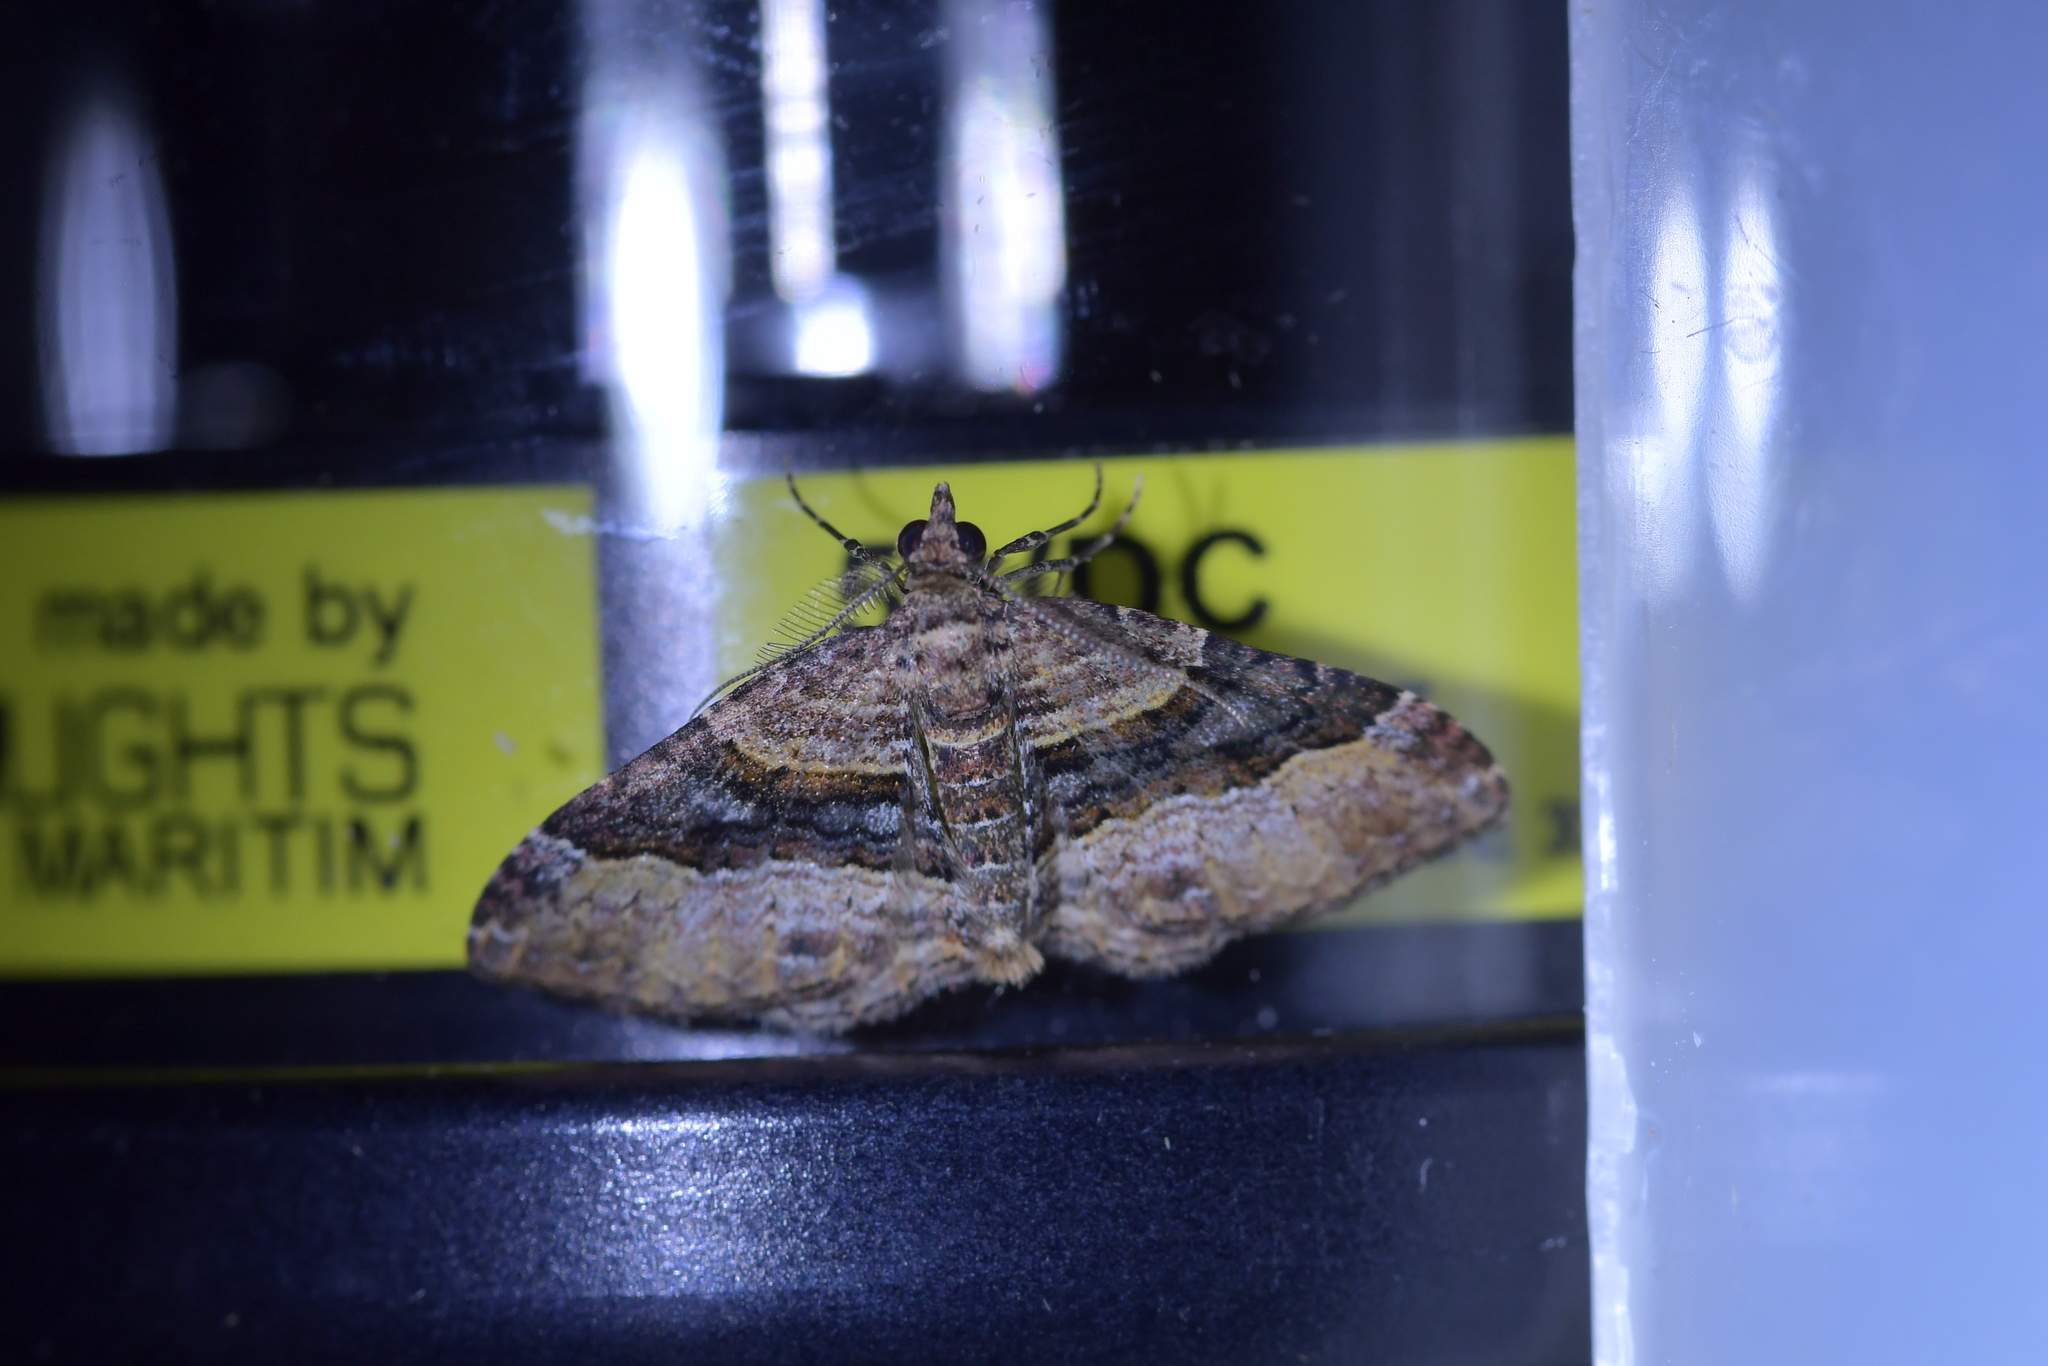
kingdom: Animalia
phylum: Arthropoda
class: Insecta
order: Lepidoptera
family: Geometridae
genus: Epyaxa
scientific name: Epyaxa lucidata
